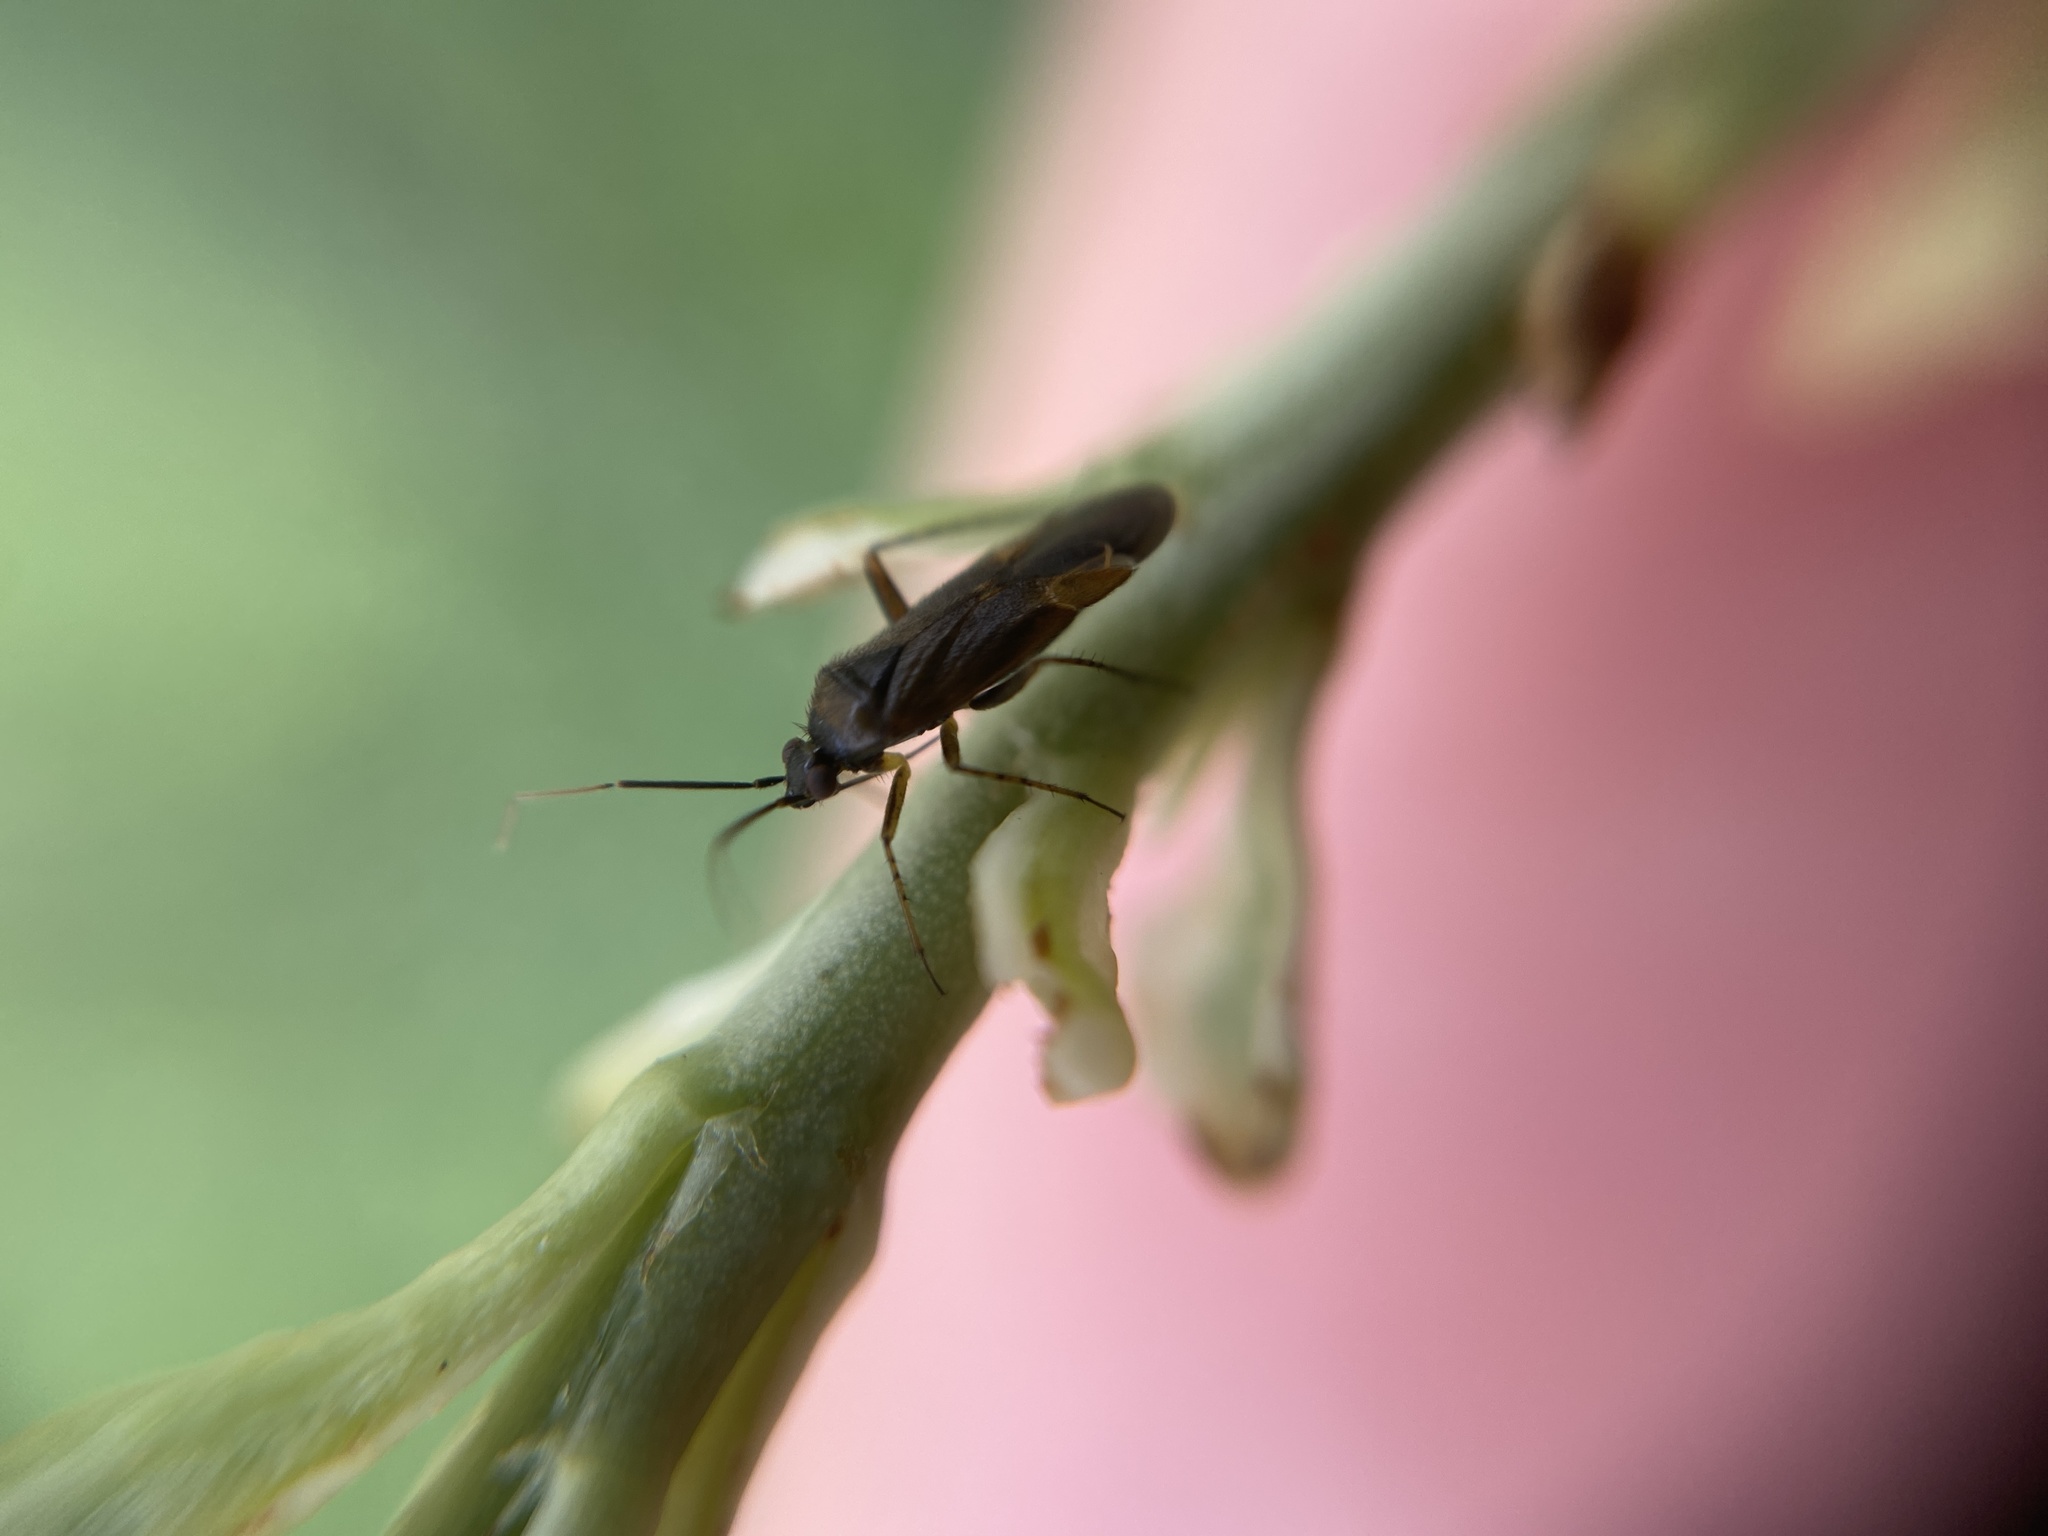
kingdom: Animalia
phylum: Arthropoda
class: Insecta
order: Hemiptera
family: Miridae
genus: Plagiognathus
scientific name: Plagiognathus arbustorum
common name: Plant bug
